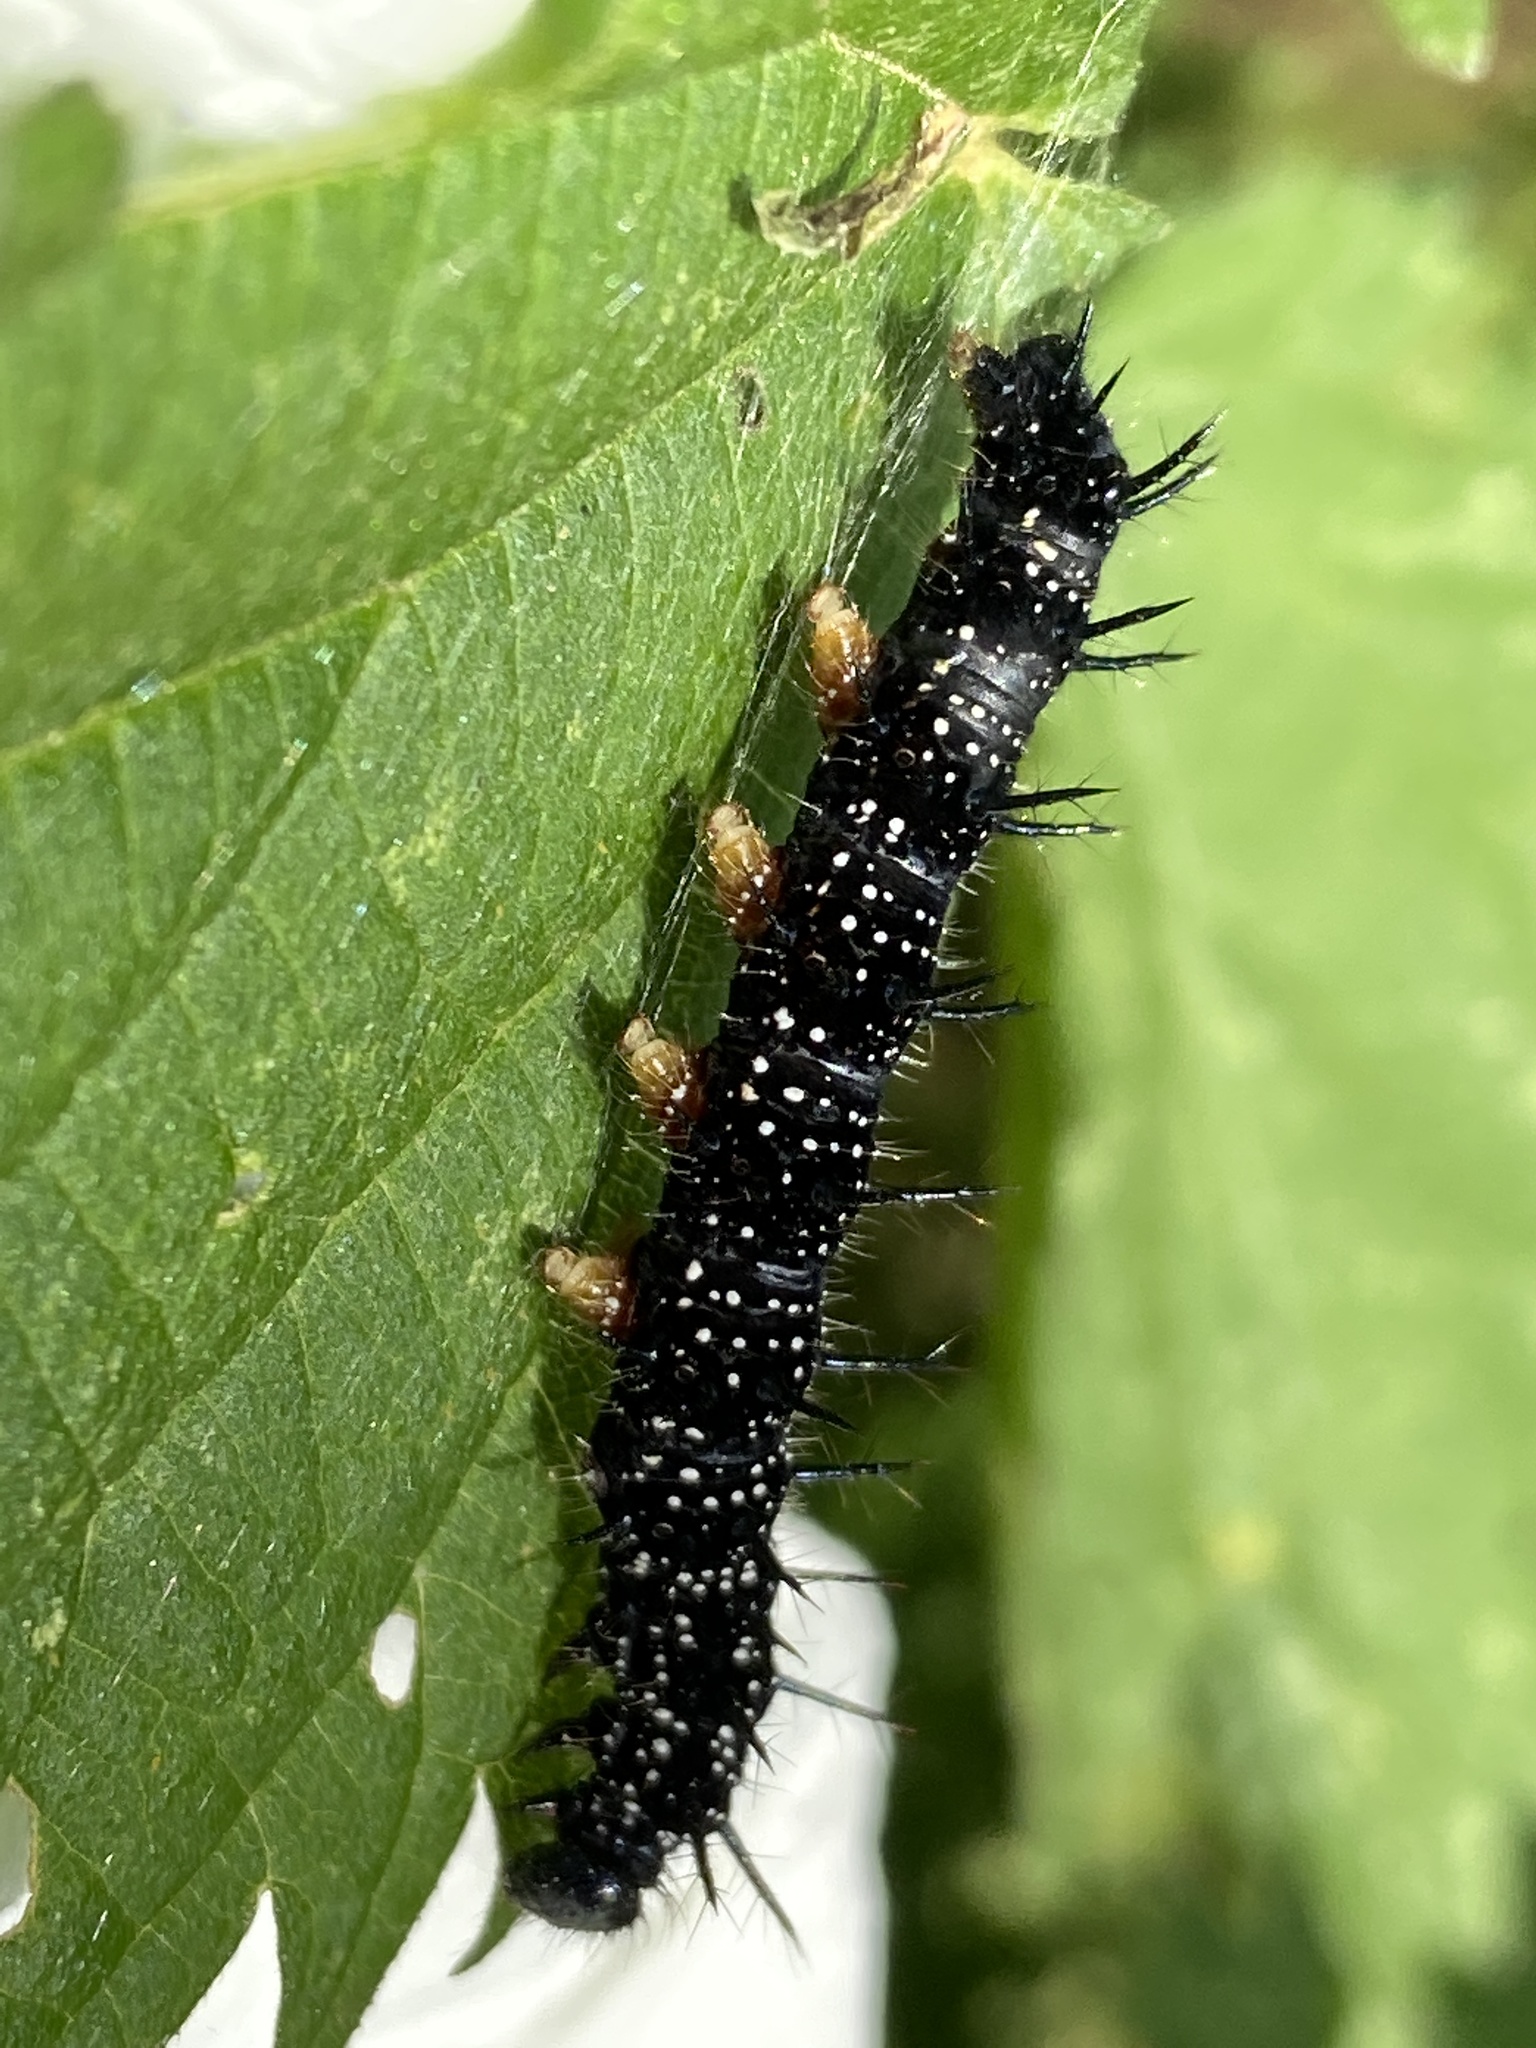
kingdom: Animalia
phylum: Arthropoda
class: Insecta
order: Lepidoptera
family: Nymphalidae
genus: Aglais
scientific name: Aglais io
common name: Peacock
